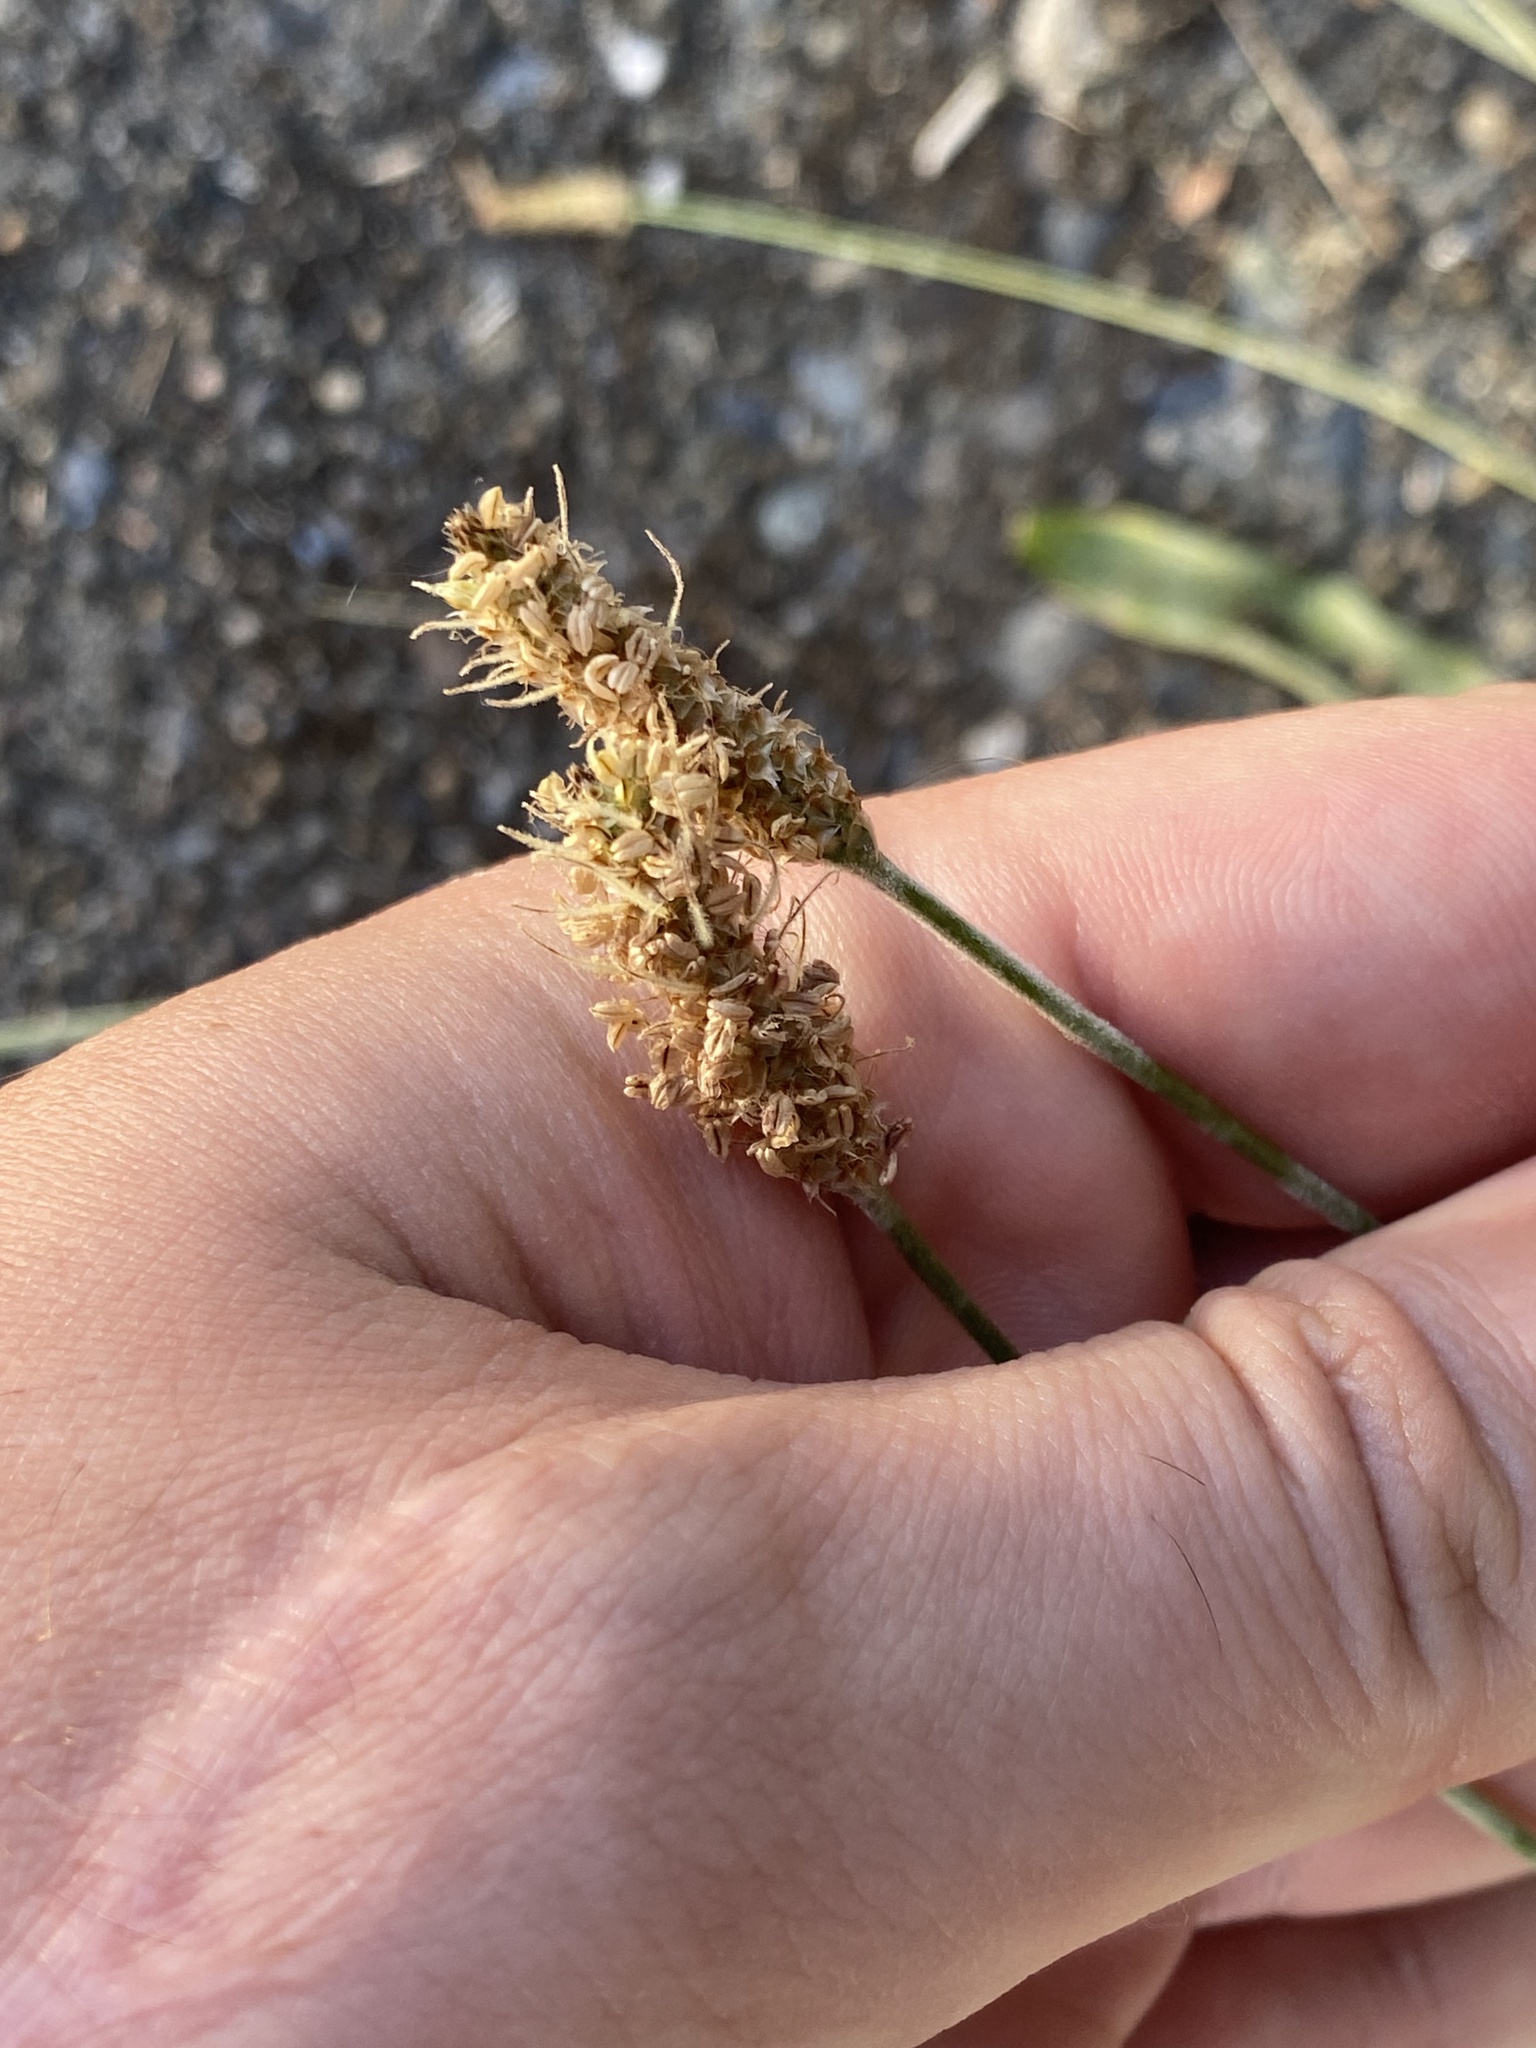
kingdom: Plantae
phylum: Tracheophyta
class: Magnoliopsida
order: Lamiales
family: Plantaginaceae
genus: Plantago
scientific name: Plantago lanceolata
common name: Ribwort plantain
